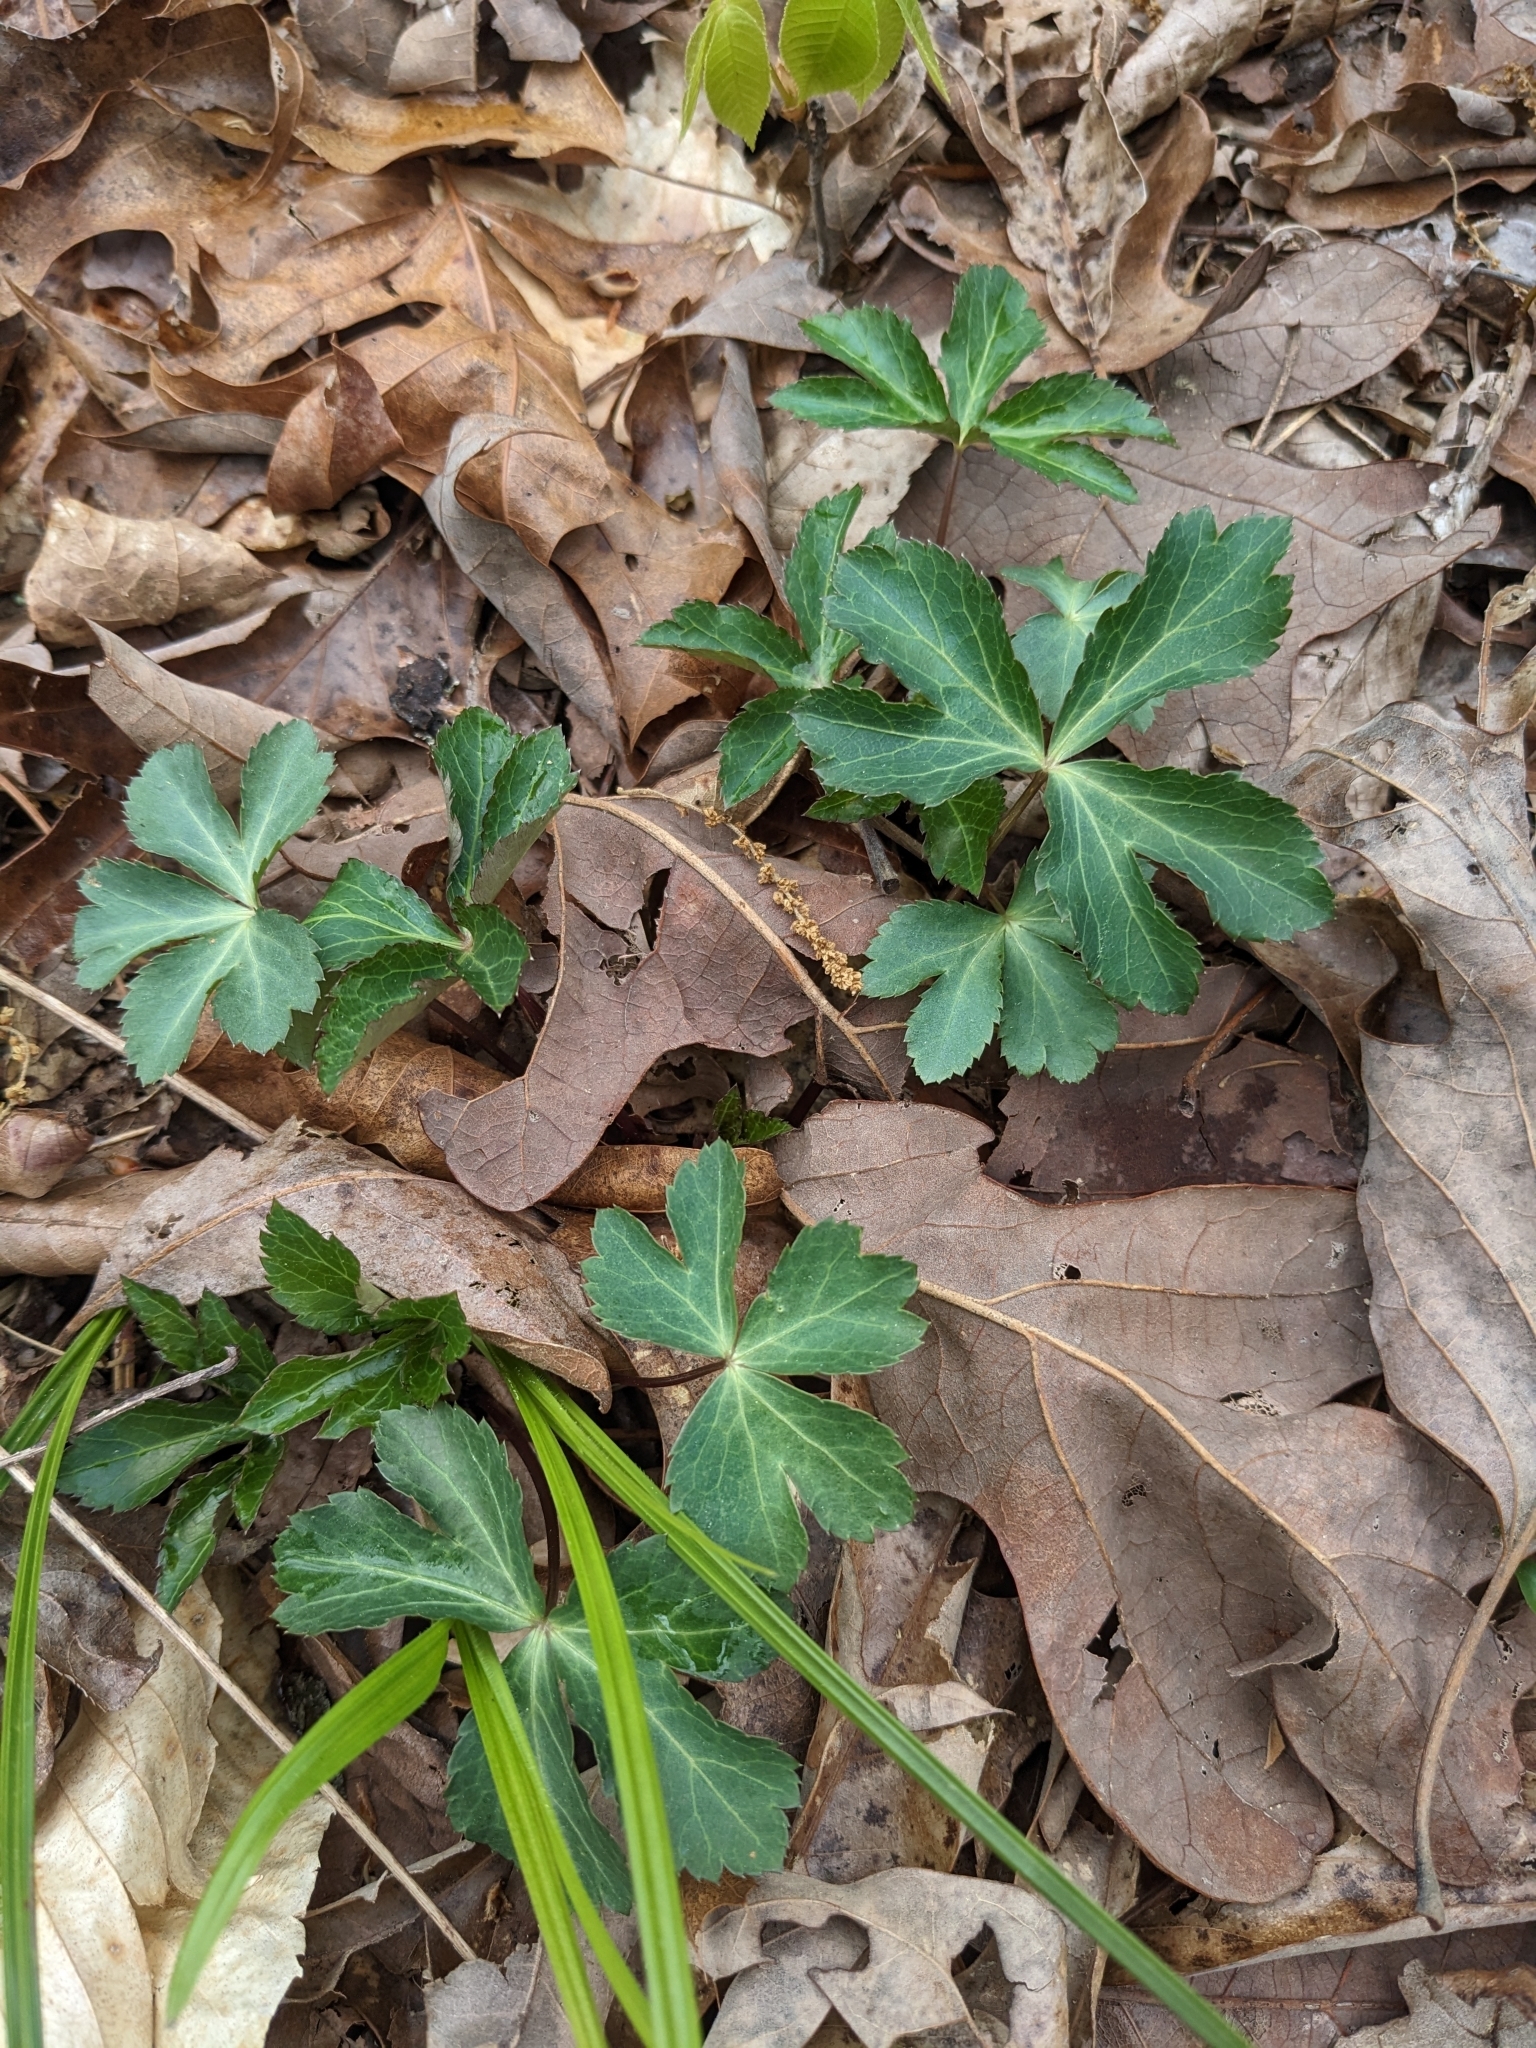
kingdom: Plantae
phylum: Tracheophyta
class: Magnoliopsida
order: Apiales
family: Apiaceae
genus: Sanicula
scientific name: Sanicula smallii
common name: Small's black snakeroot
